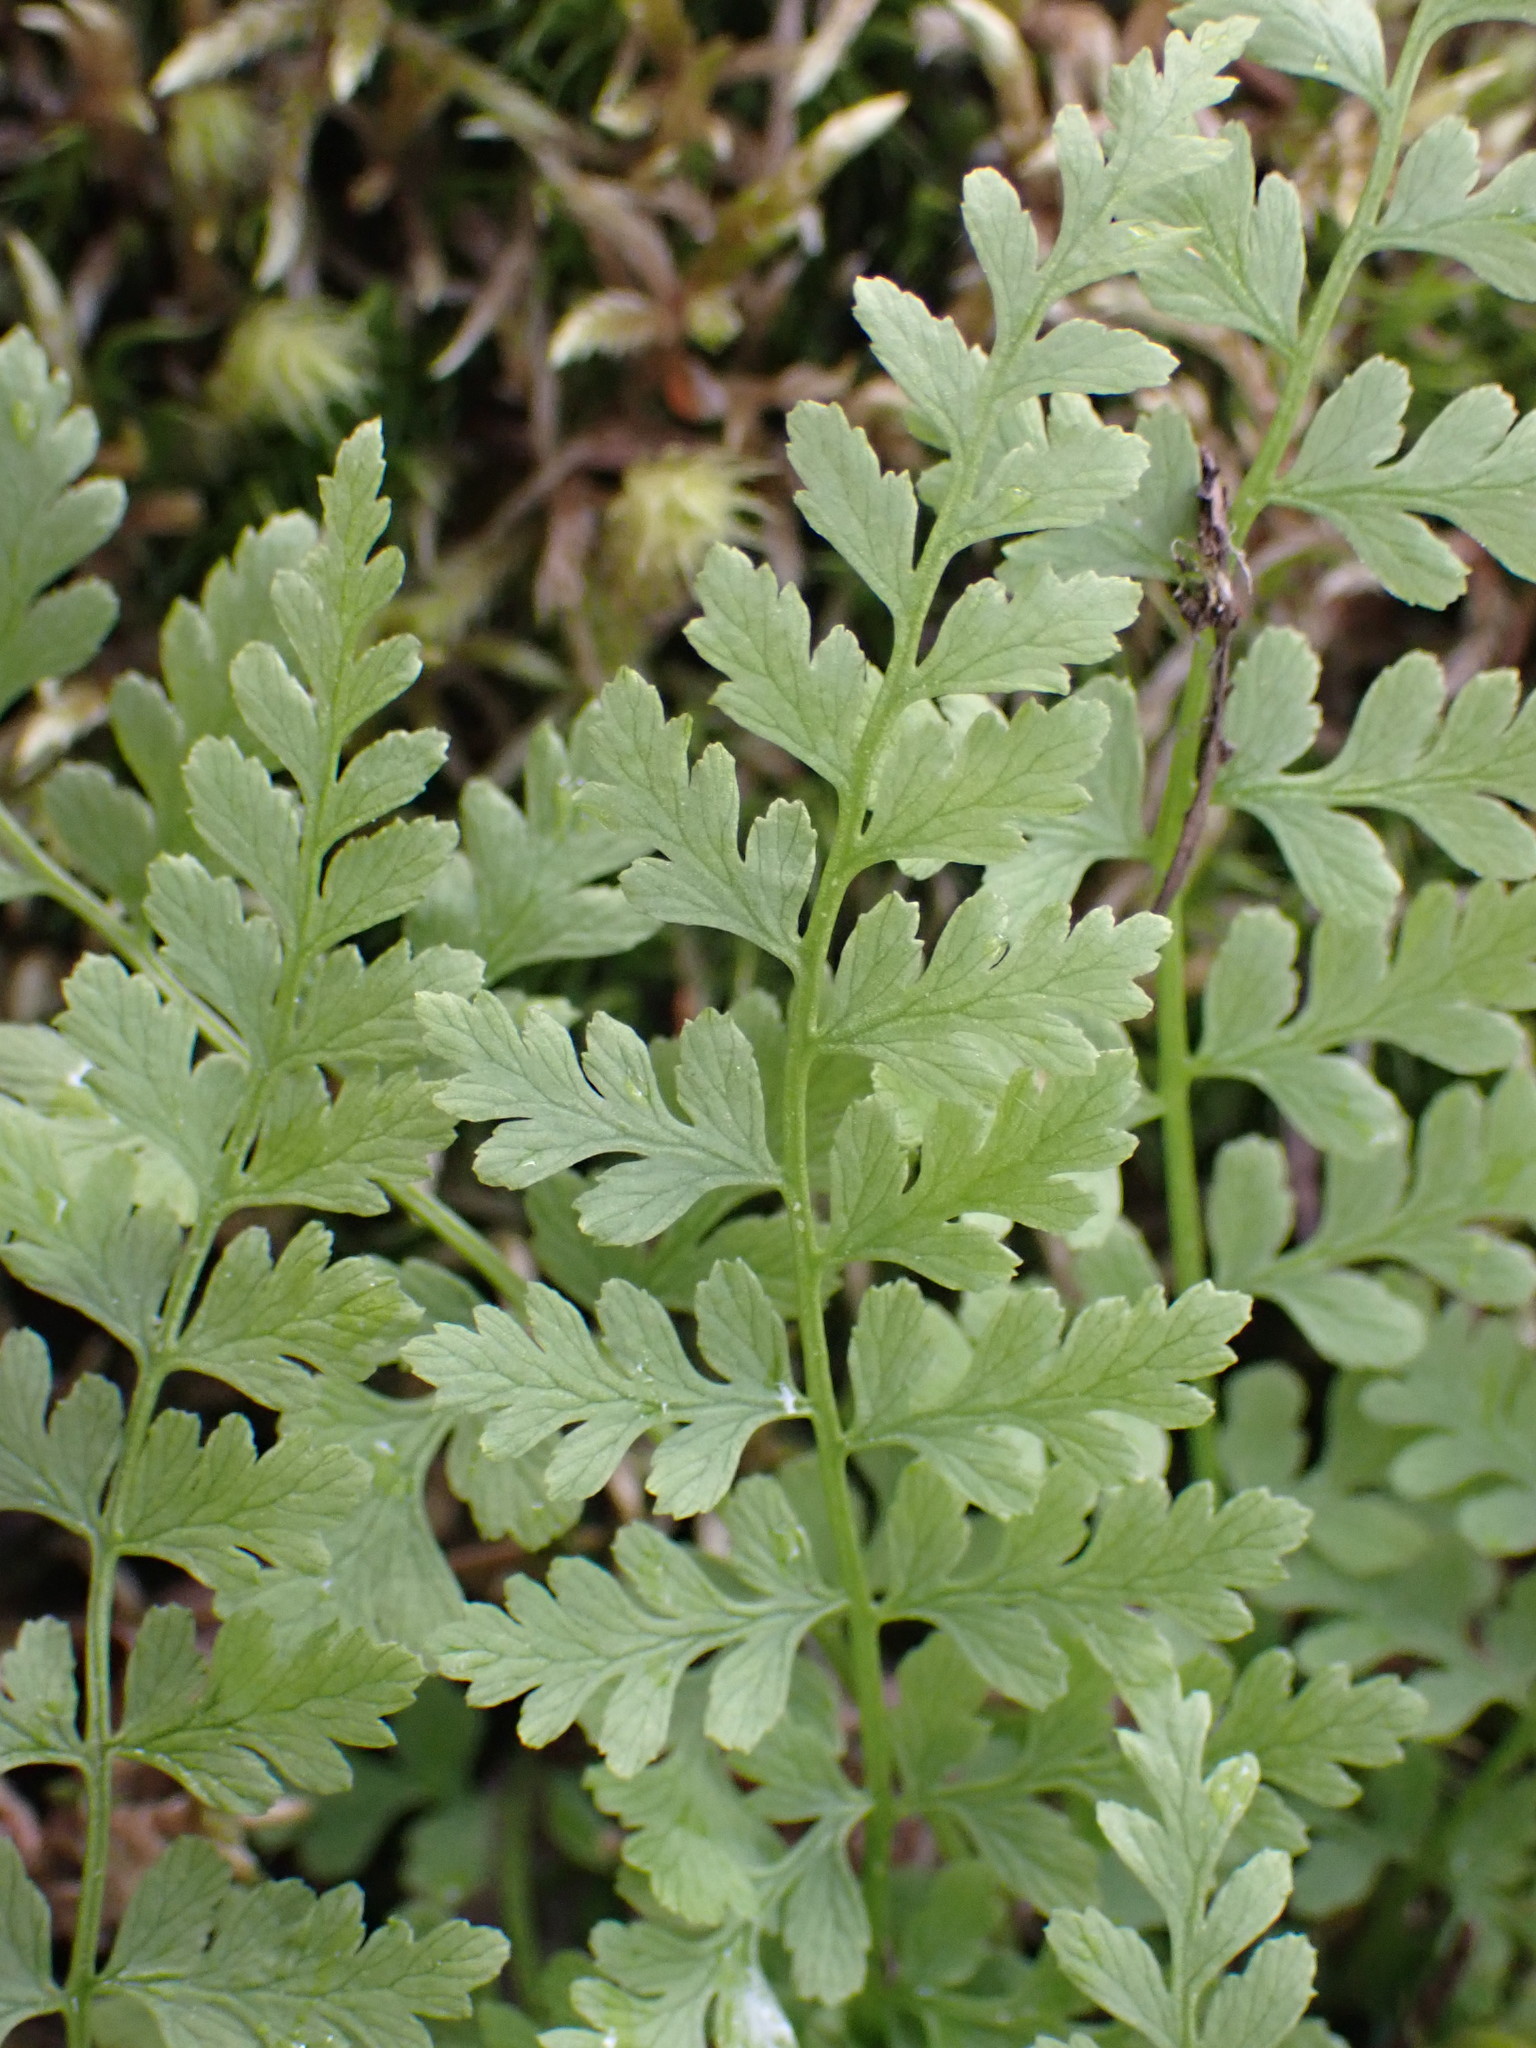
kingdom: Plantae
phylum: Tracheophyta
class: Polypodiopsida
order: Polypodiales
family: Cystopteridaceae
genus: Cystopteris
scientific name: Cystopteris fragilis
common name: Brittle bladder fern
